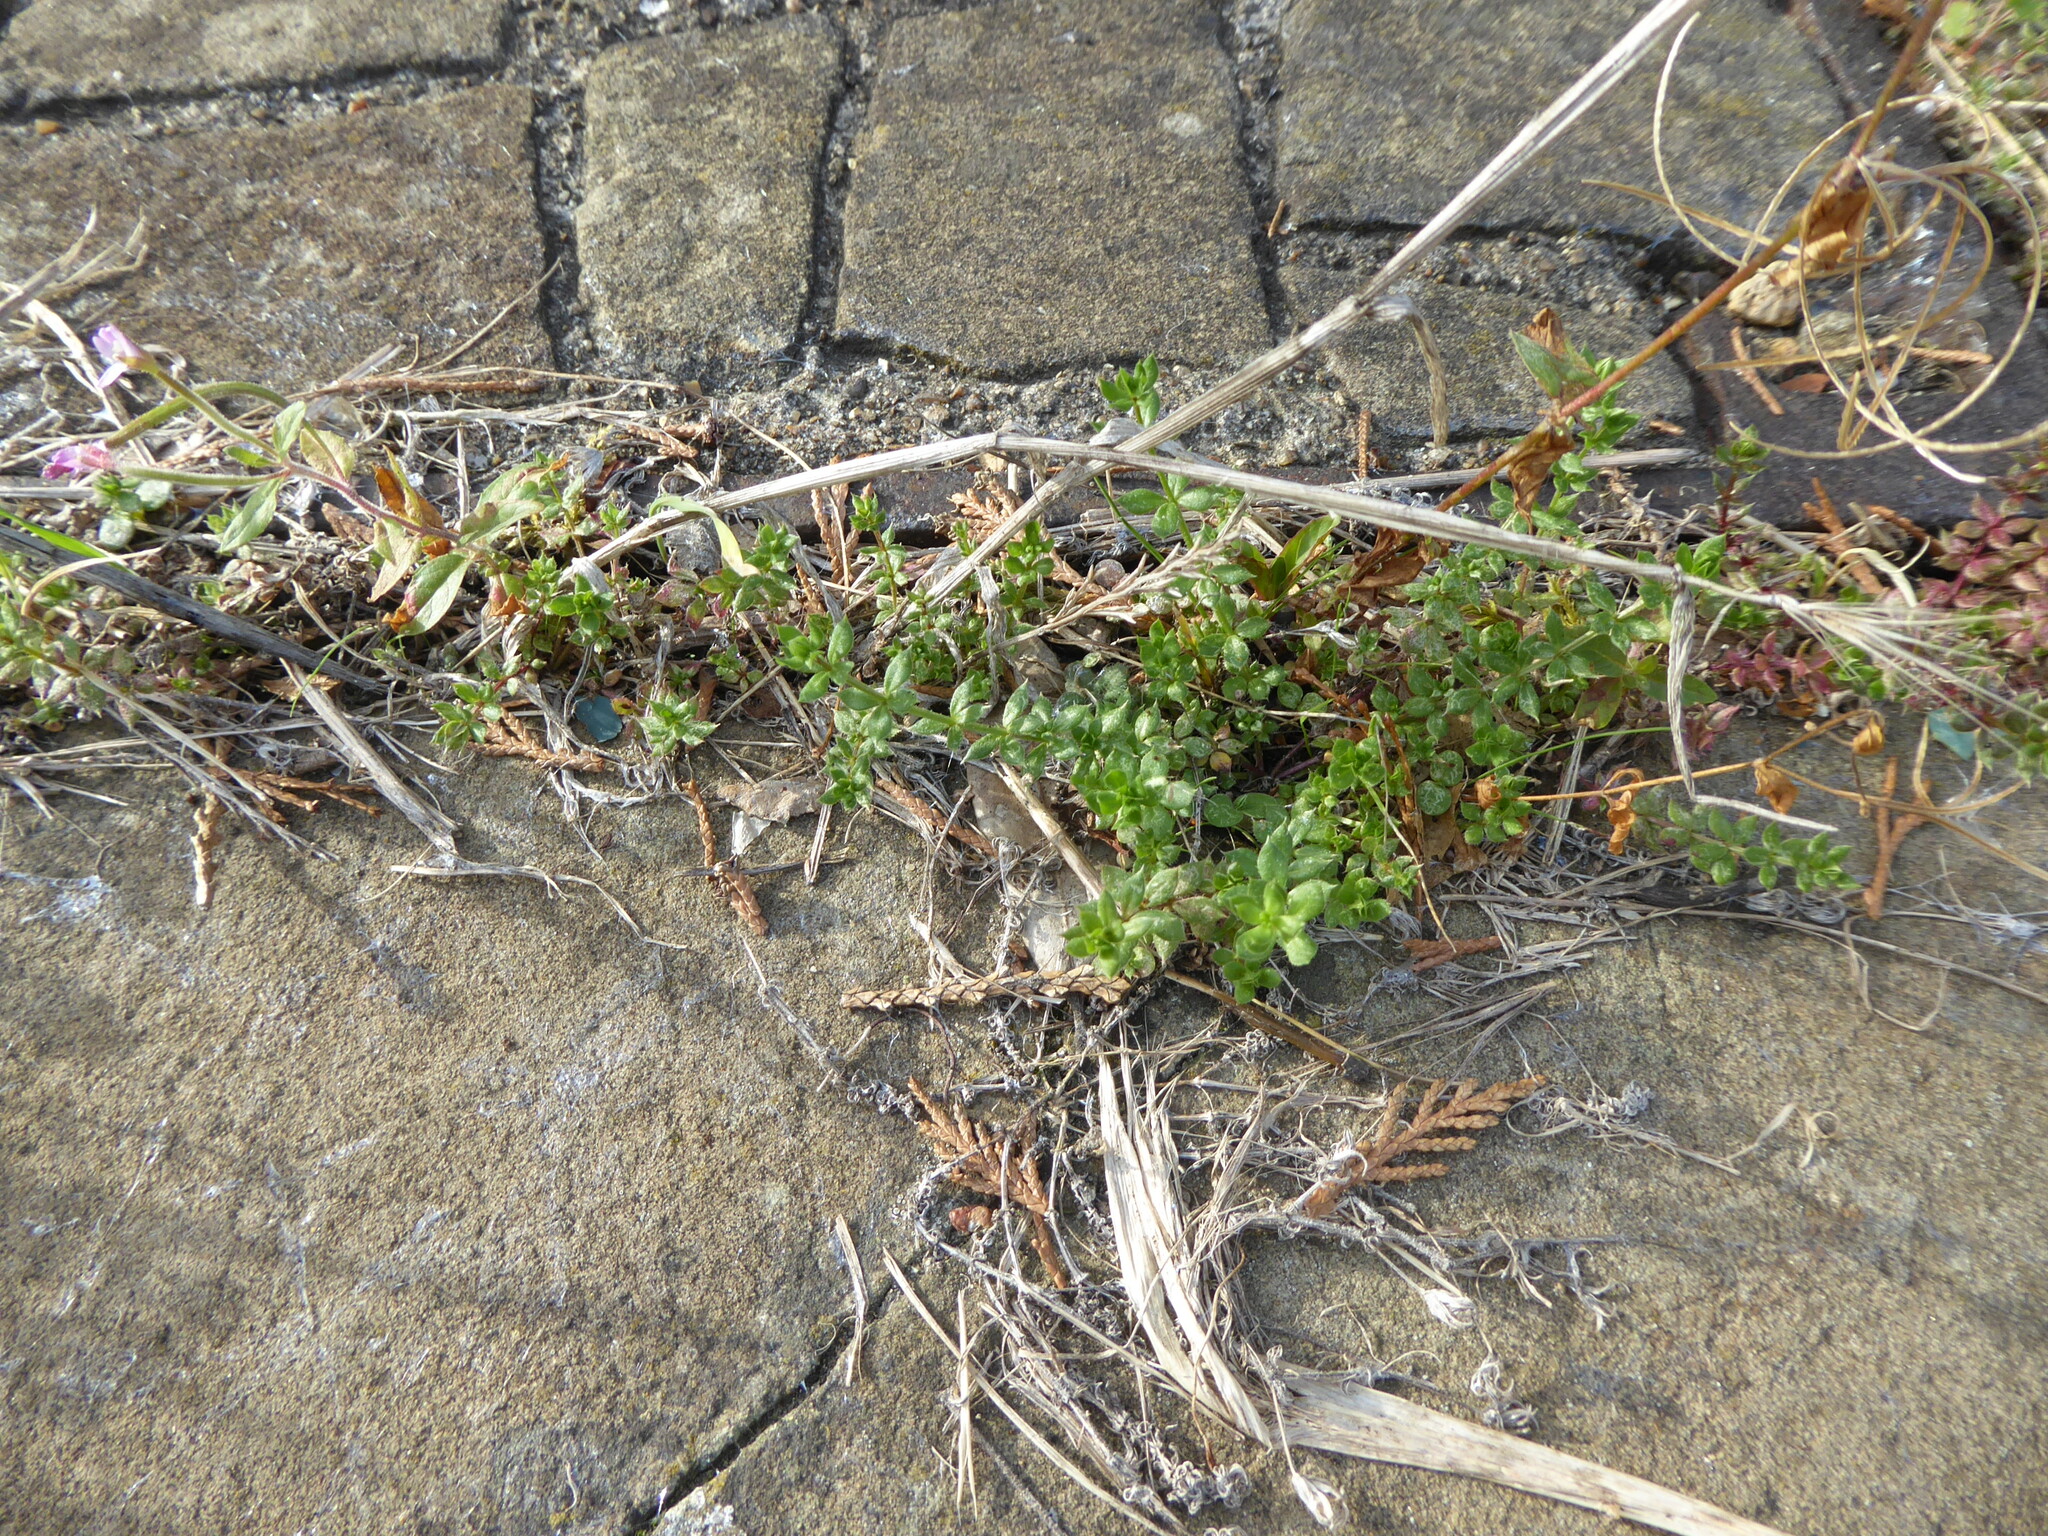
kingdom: Plantae
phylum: Tracheophyta
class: Magnoliopsida
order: Gentianales
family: Rubiaceae
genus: Sherardia
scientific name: Sherardia arvensis
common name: Field madder
